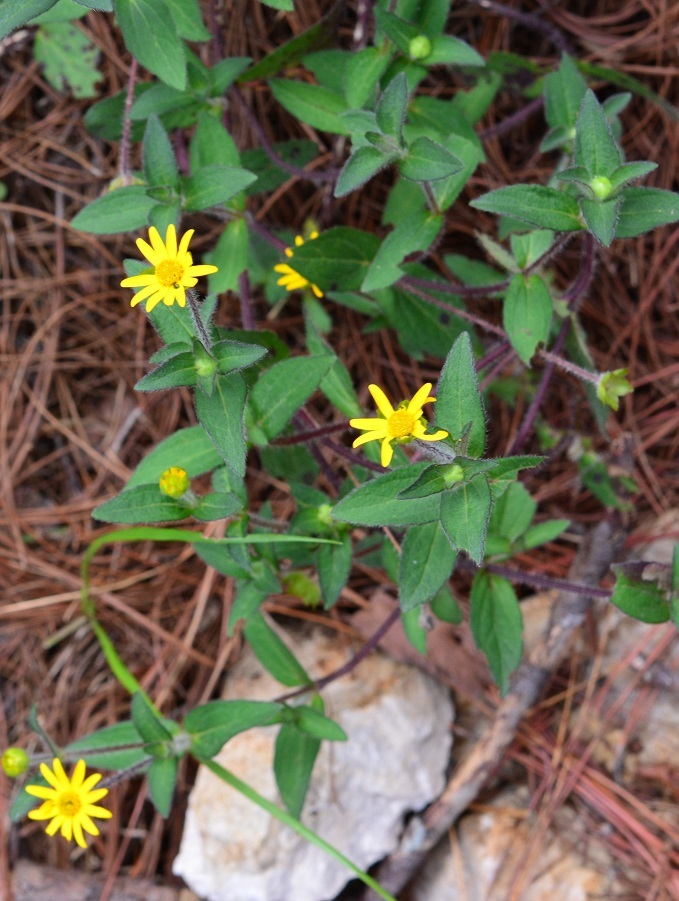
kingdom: Plantae
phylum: Tracheophyta
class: Magnoliopsida
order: Asterales
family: Asteraceae
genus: Acmella
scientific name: Acmella repens
